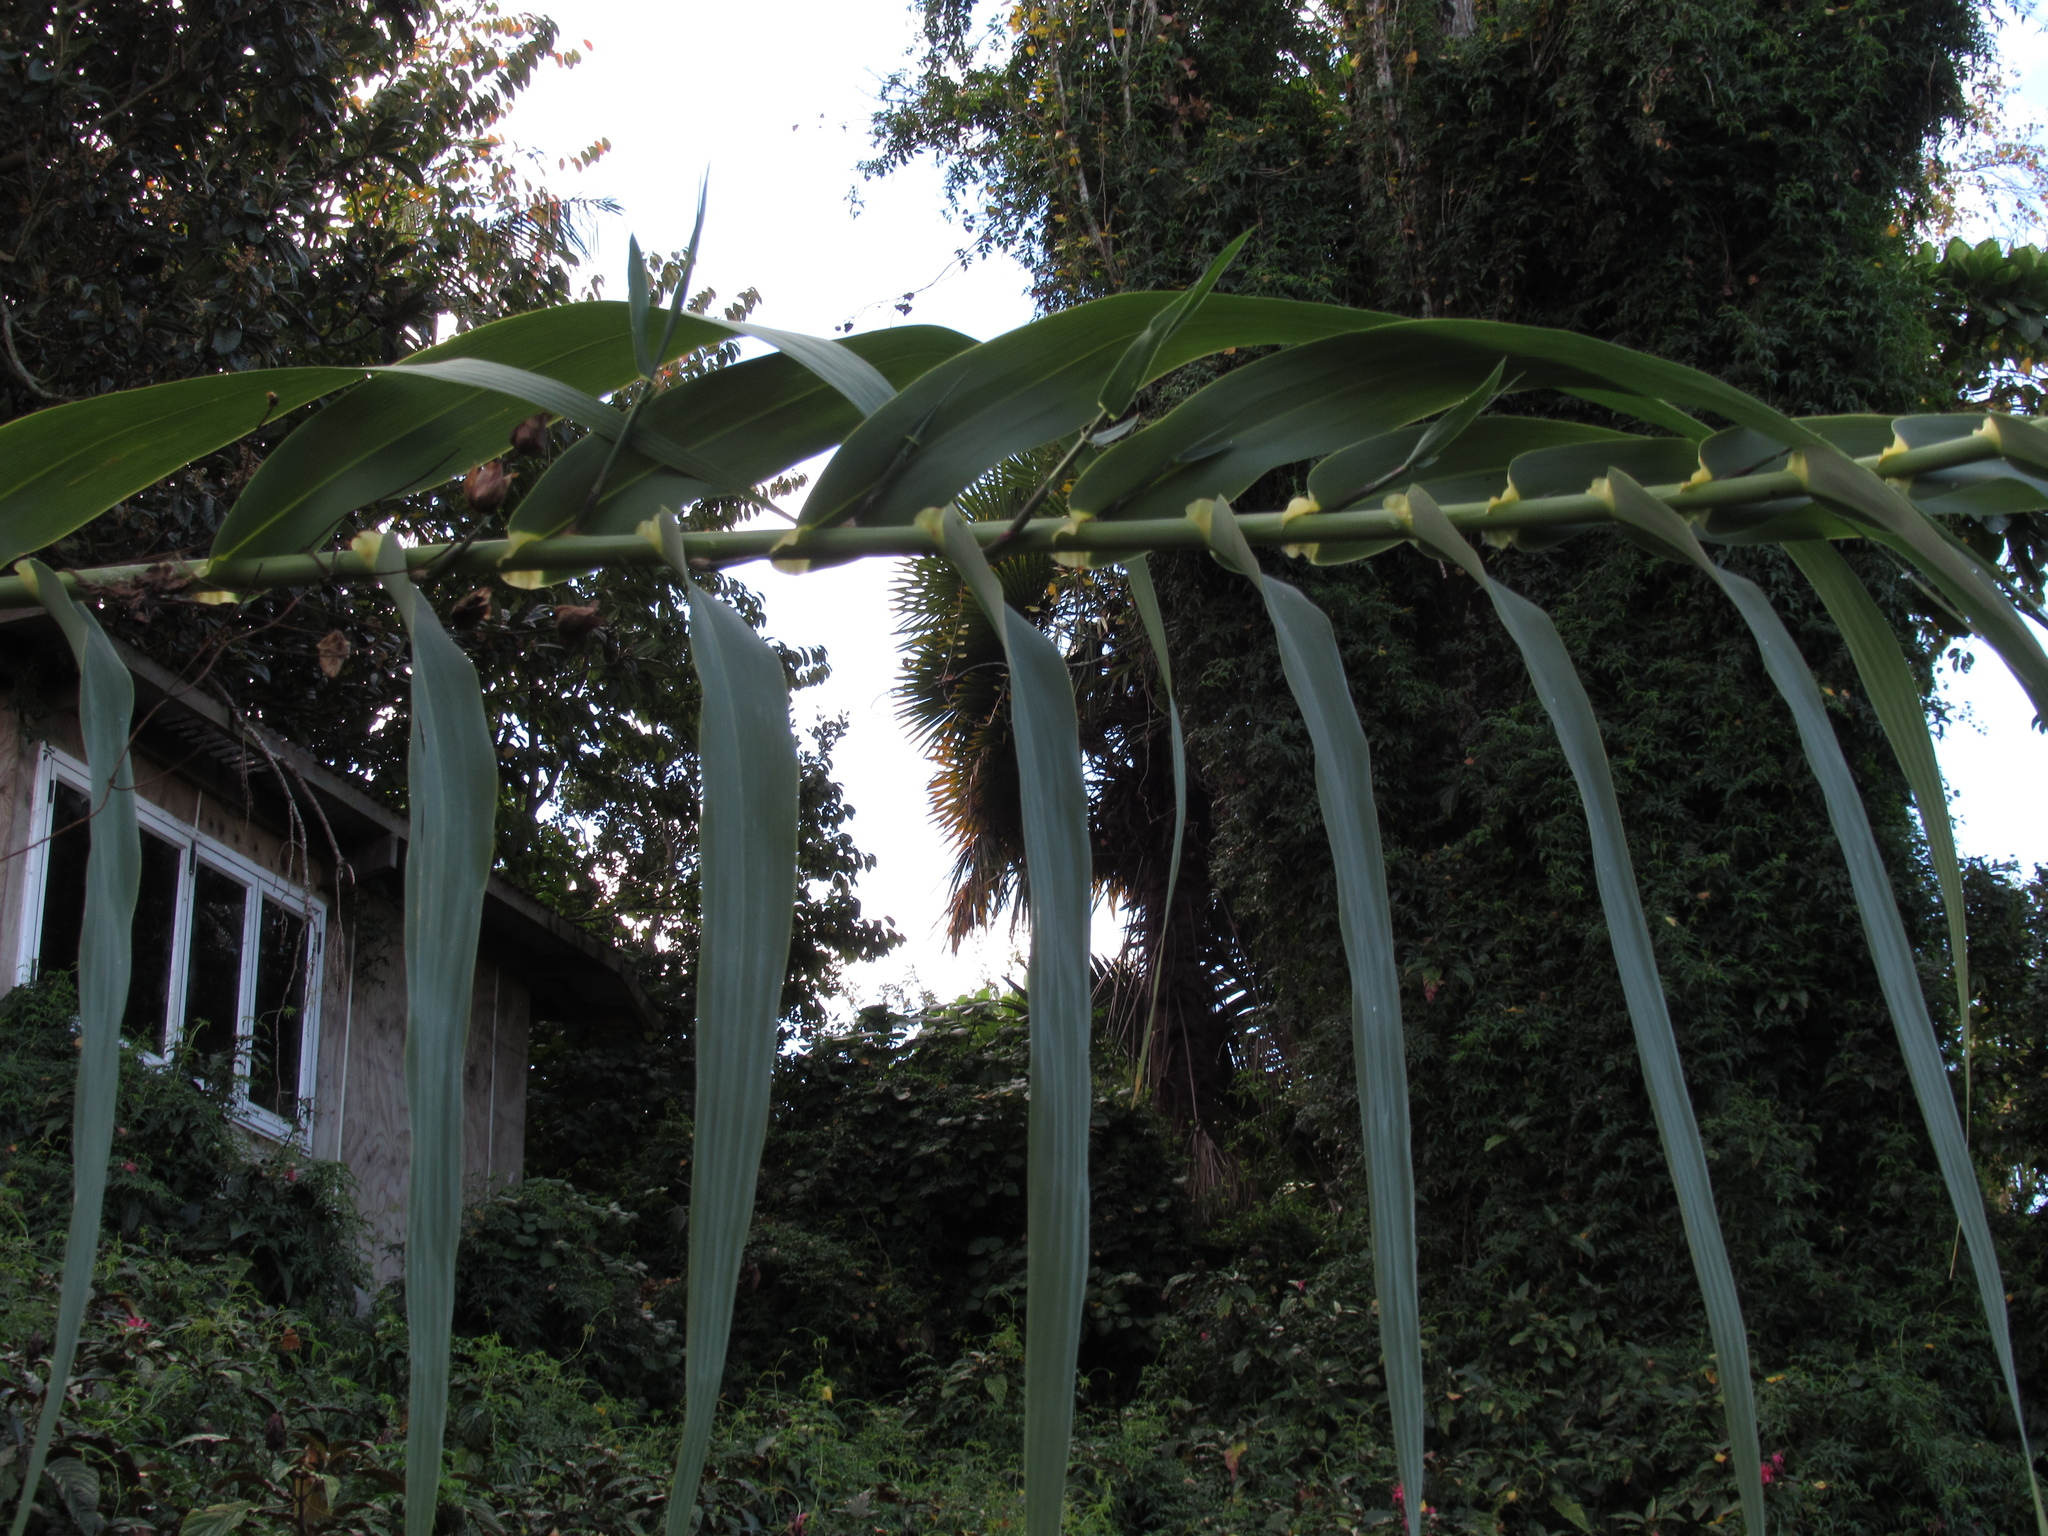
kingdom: Plantae
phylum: Tracheophyta
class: Liliopsida
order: Poales
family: Poaceae
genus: Arundo
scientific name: Arundo donax
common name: Giant reed
